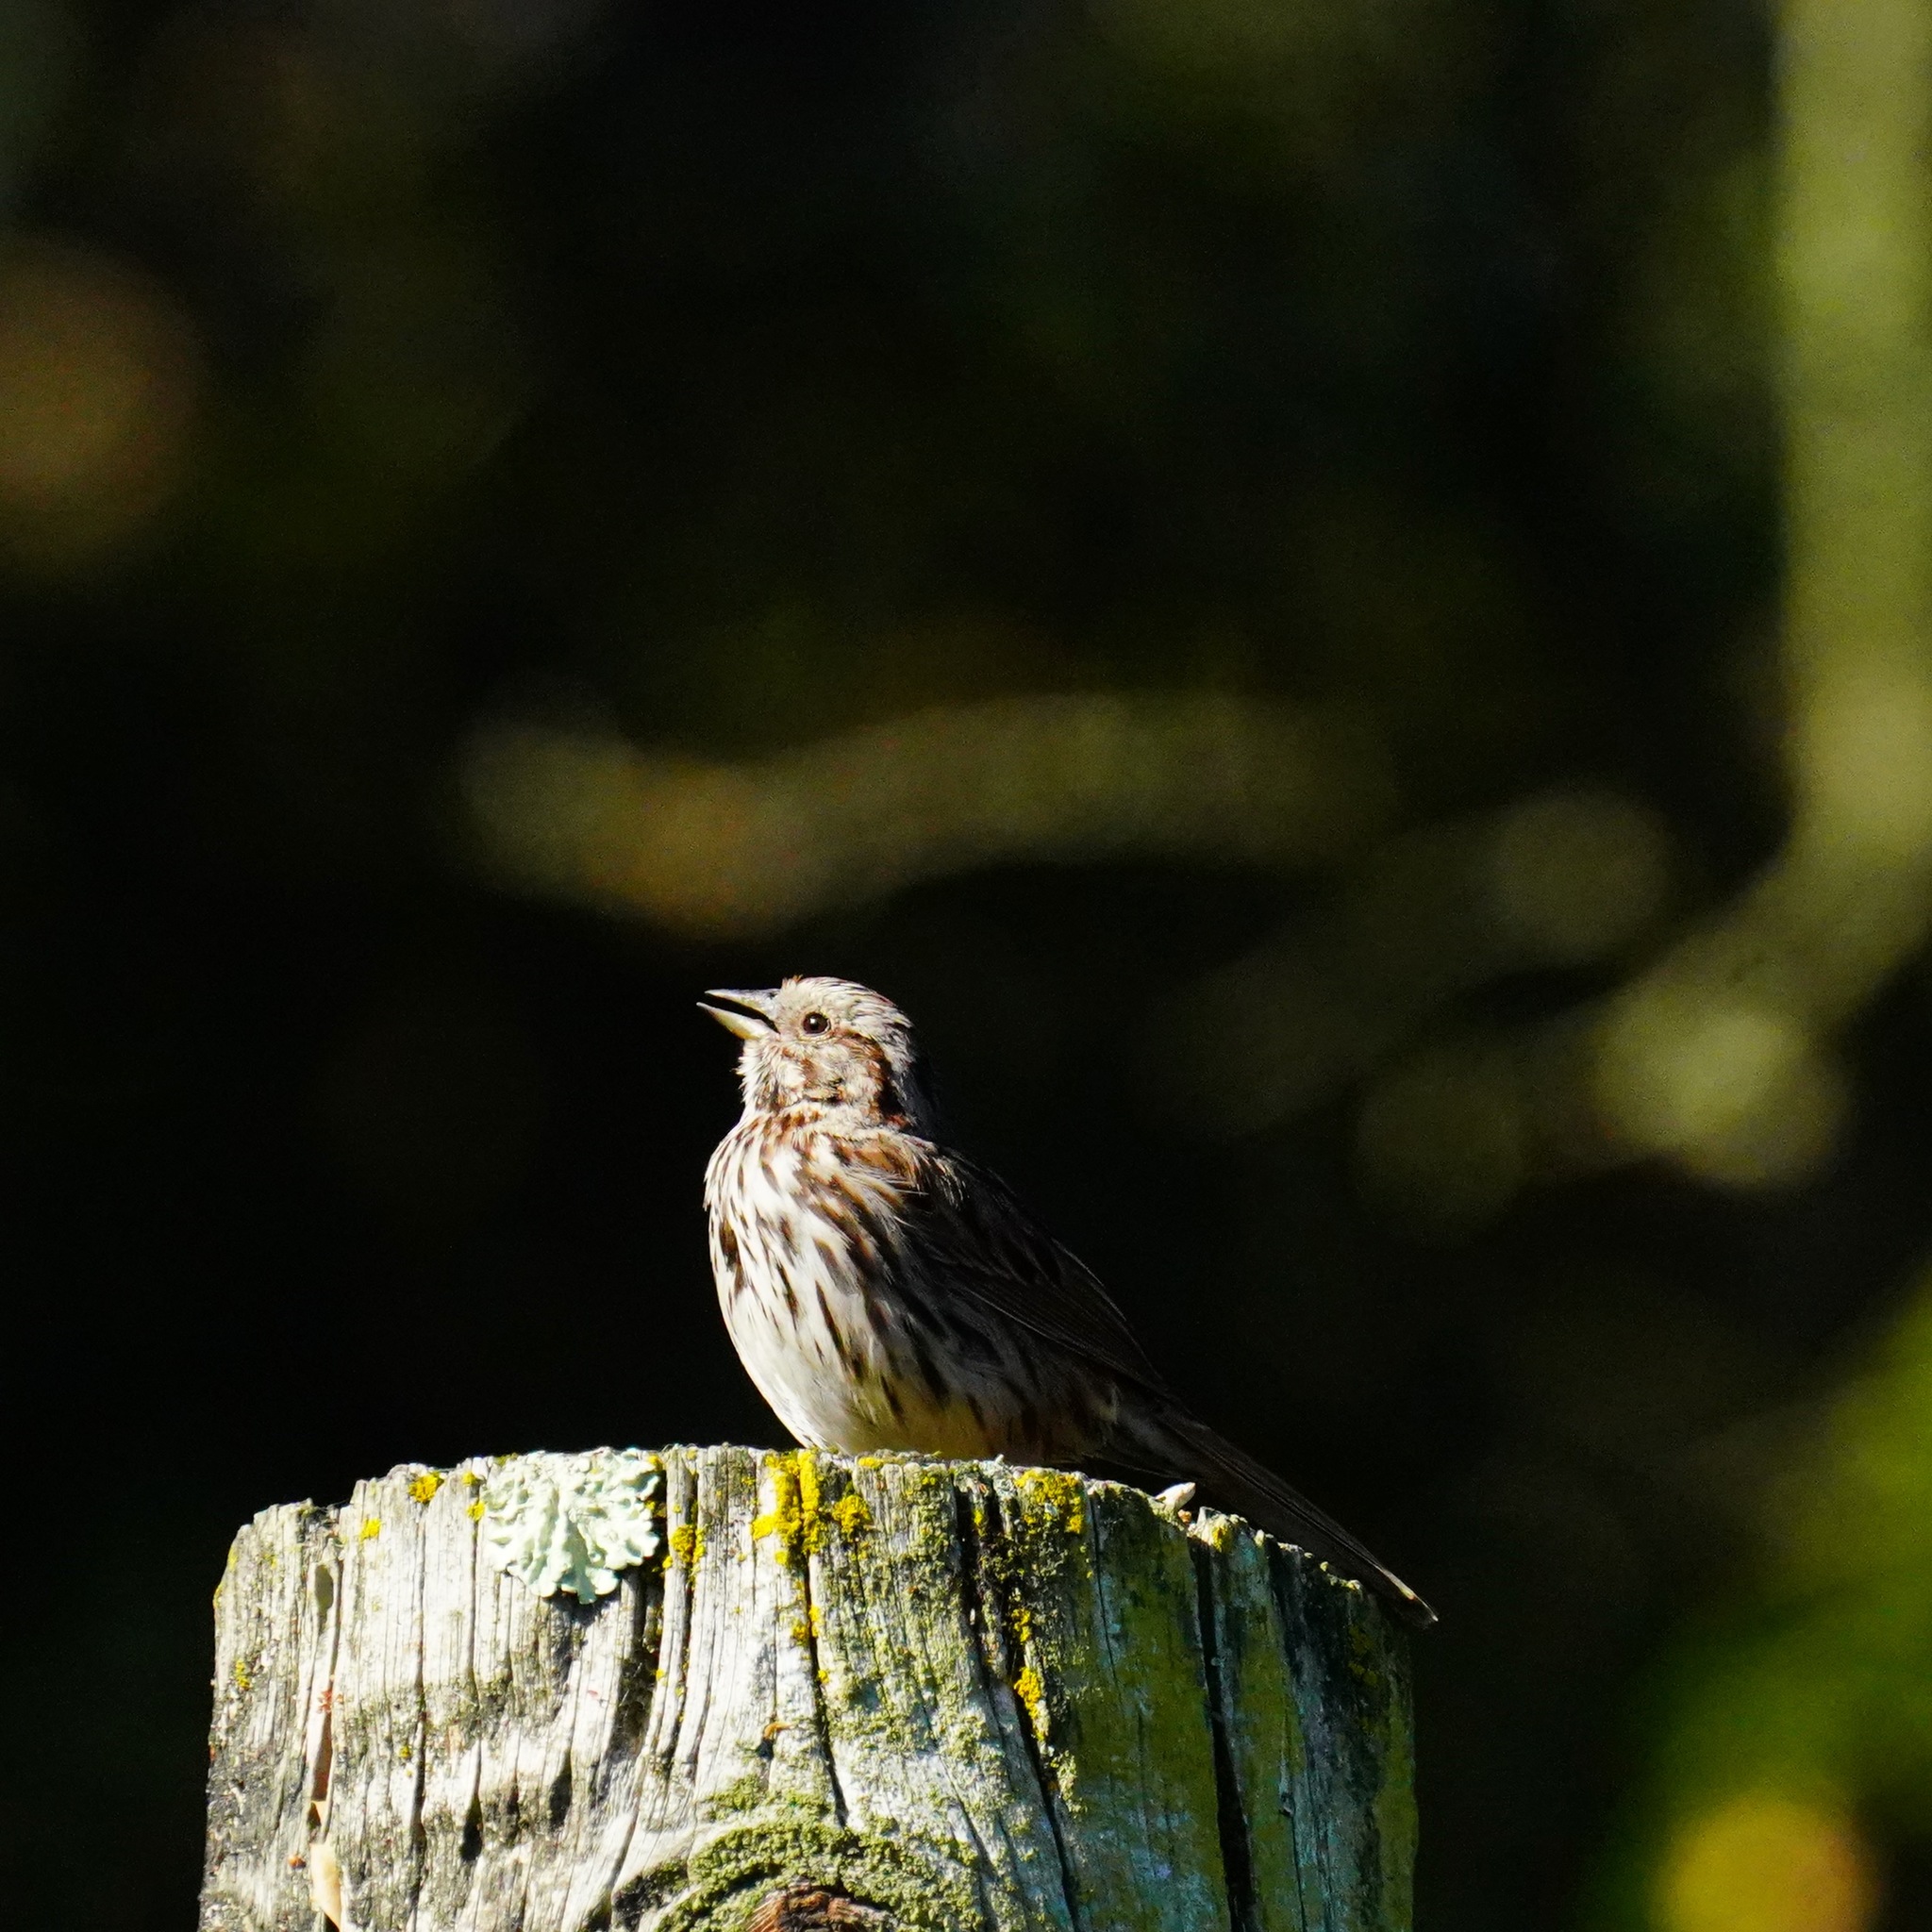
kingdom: Animalia
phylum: Chordata
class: Aves
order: Passeriformes
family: Passerellidae
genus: Melospiza
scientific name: Melospiza melodia
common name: Song sparrow
